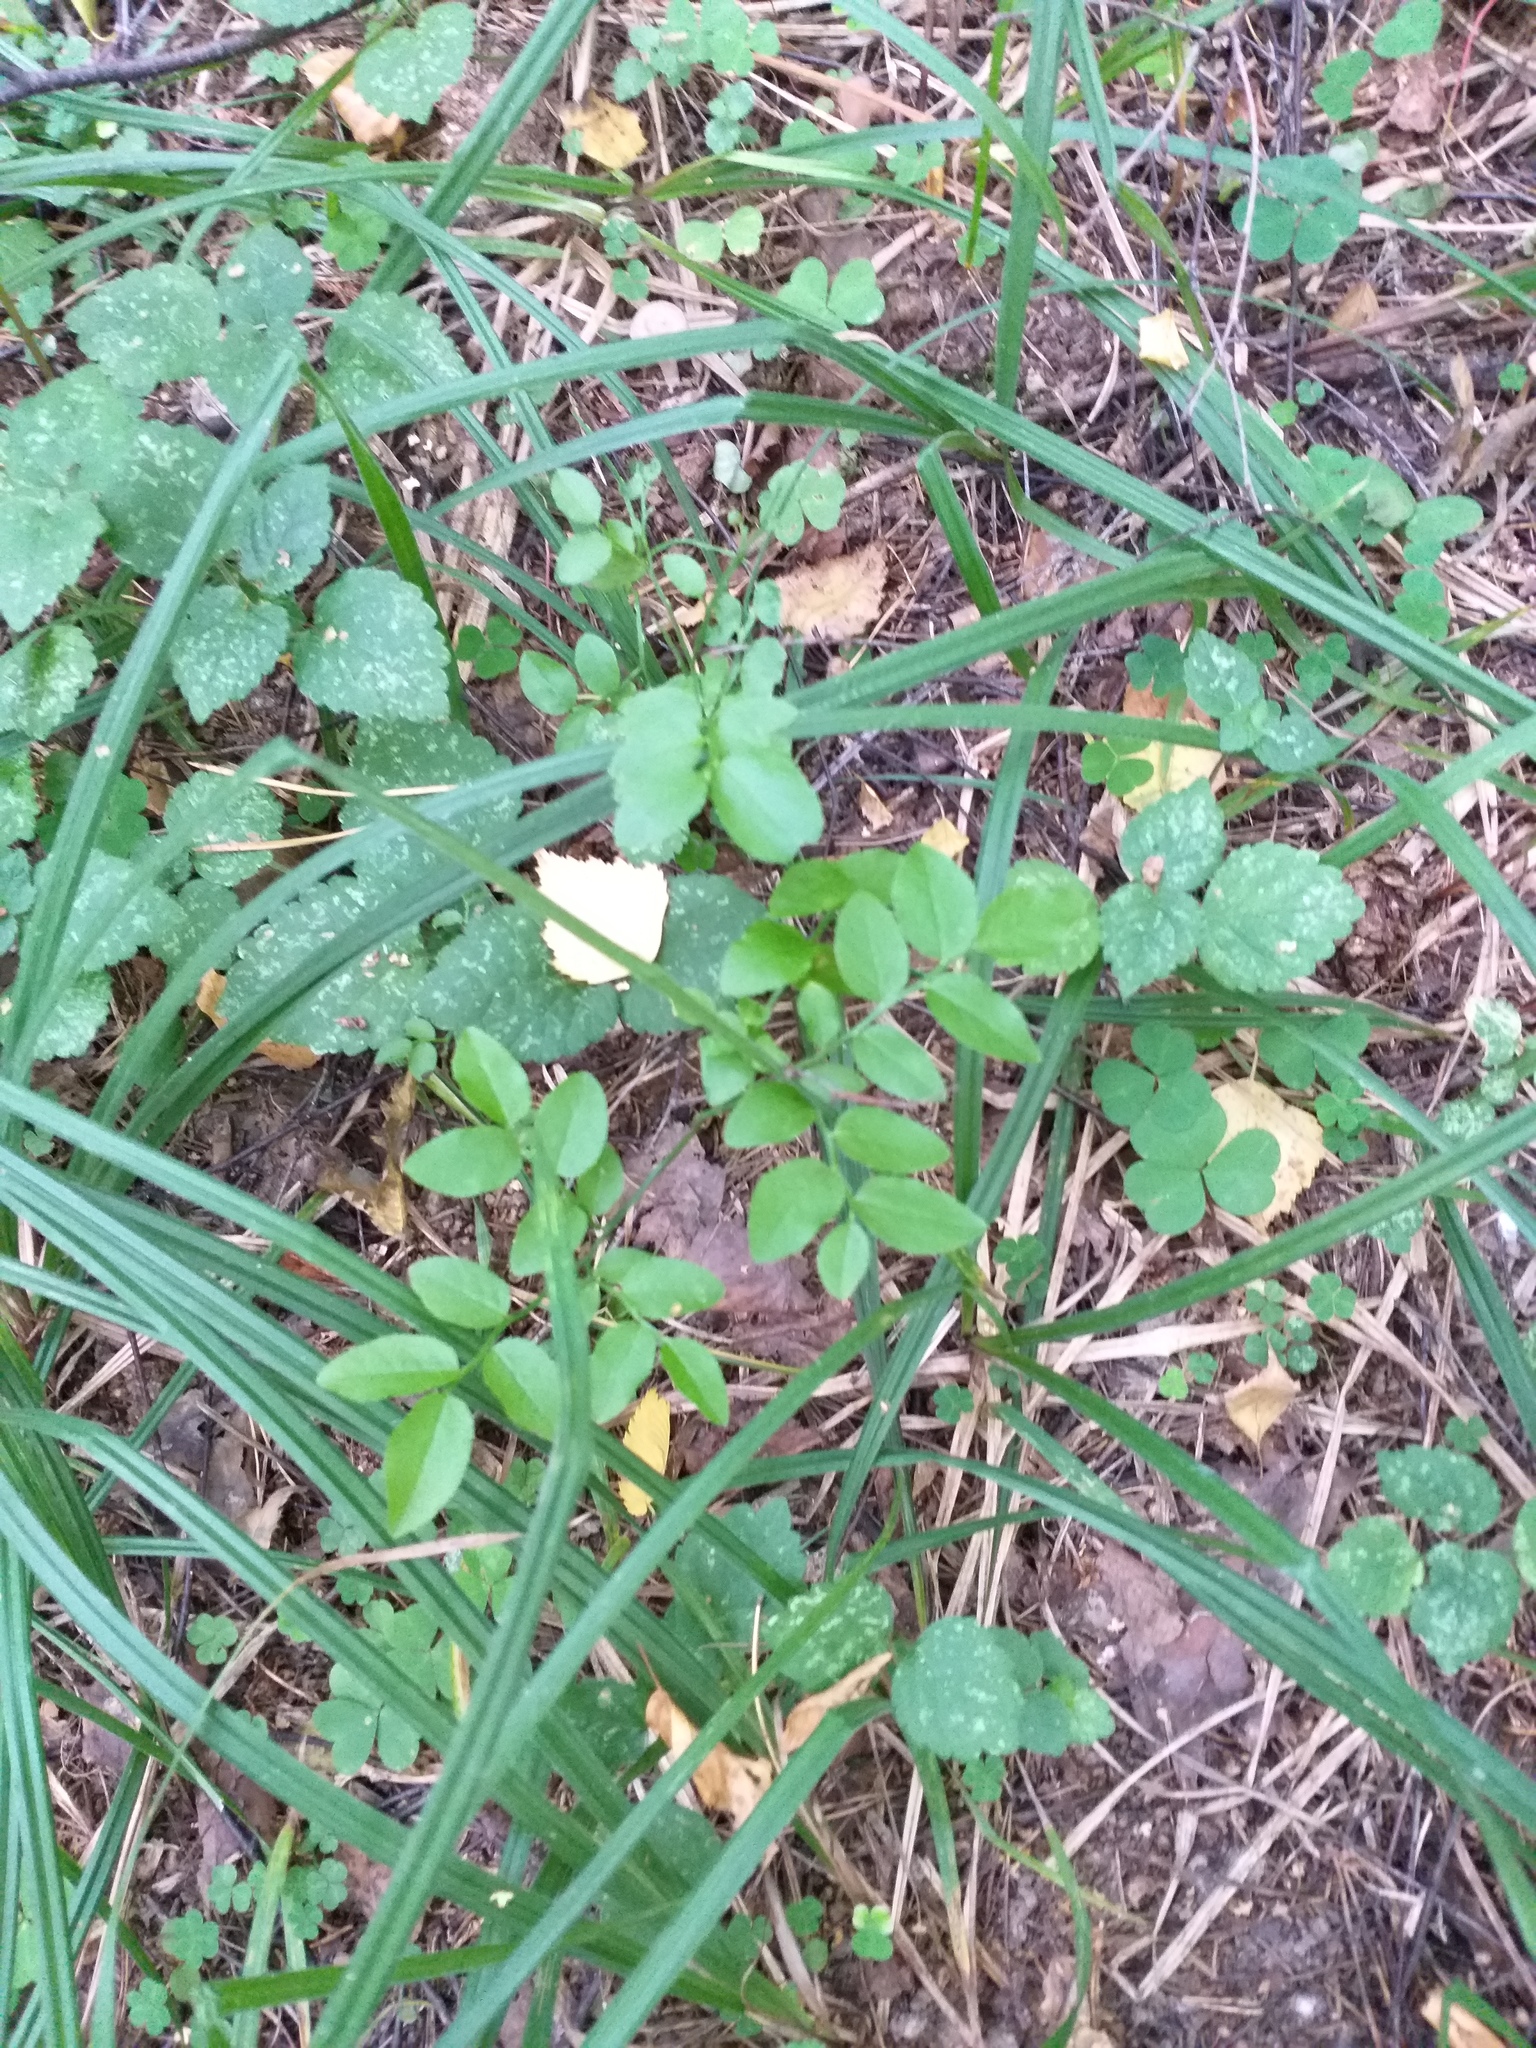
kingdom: Plantae
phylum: Tracheophyta
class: Magnoliopsida
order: Ericales
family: Ericaceae
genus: Vaccinium
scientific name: Vaccinium myrtillus
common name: Bilberry
